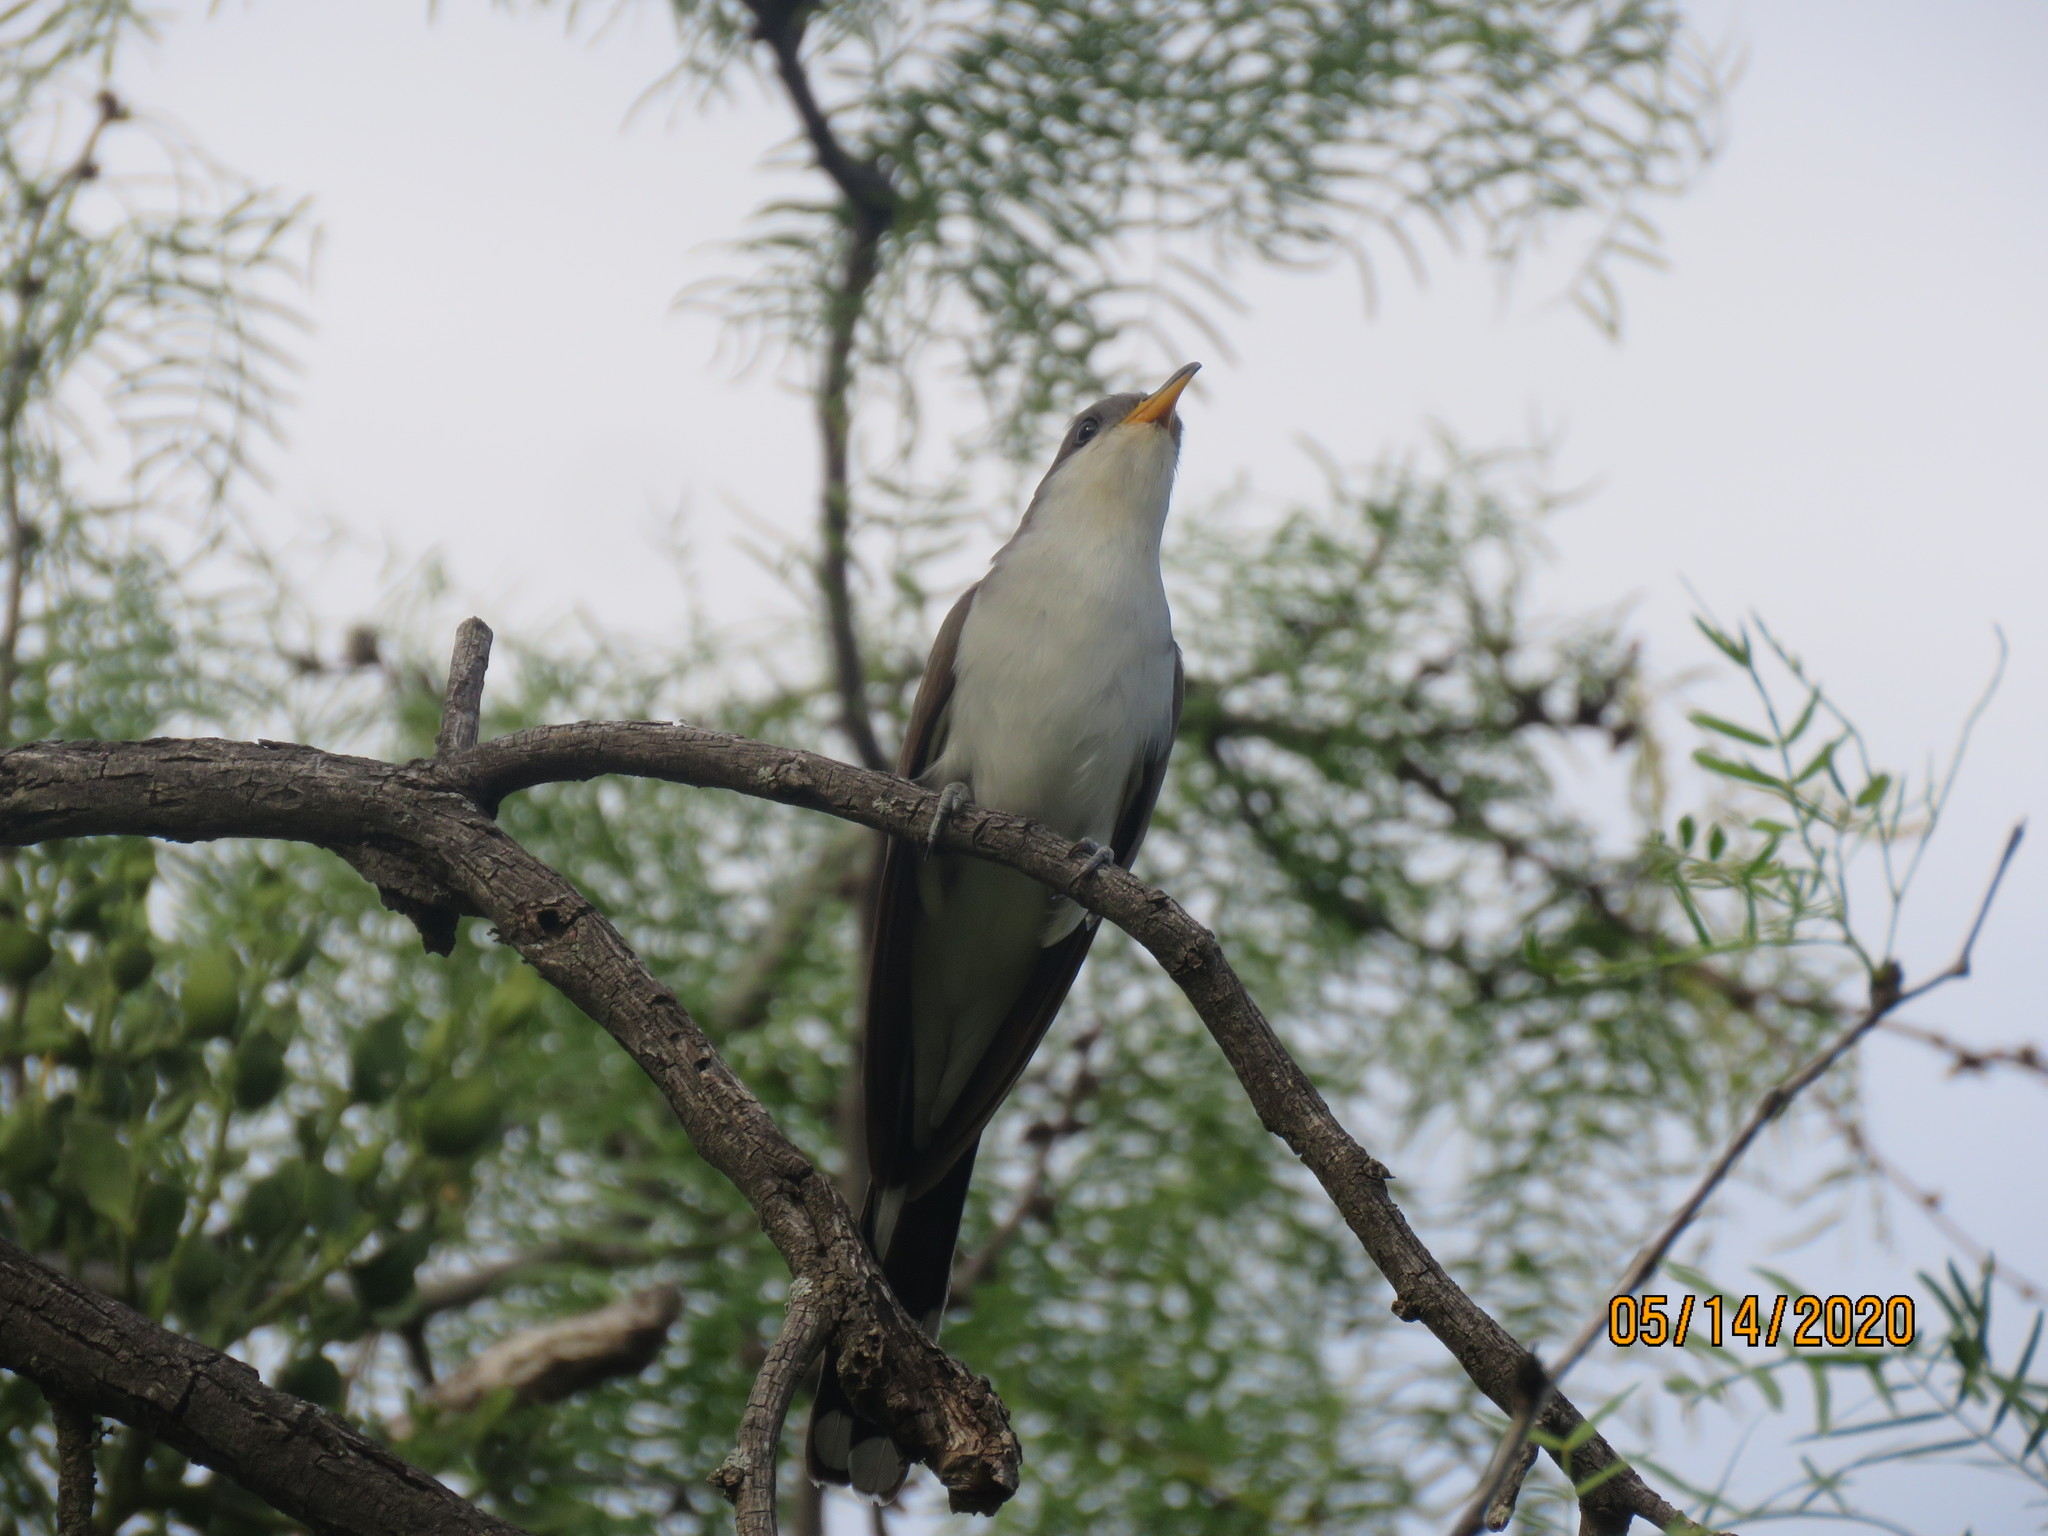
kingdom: Animalia
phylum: Chordata
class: Aves
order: Cuculiformes
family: Cuculidae
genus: Coccyzus
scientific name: Coccyzus americanus
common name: Yellow-billed cuckoo
